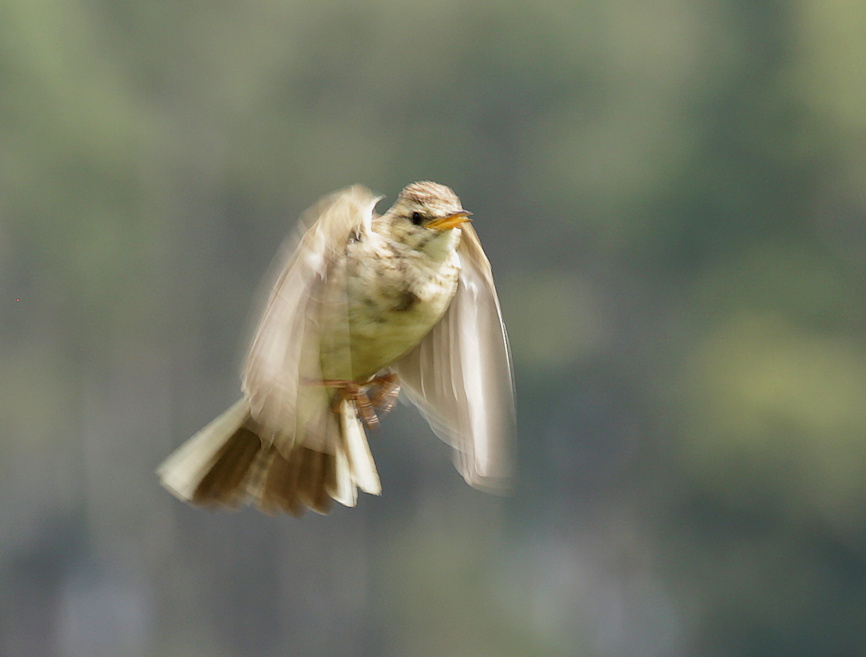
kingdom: Animalia
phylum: Chordata
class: Aves
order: Passeriformes
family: Motacillidae
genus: Anthus
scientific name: Anthus nicholsoni
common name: Nicholson's pipit
